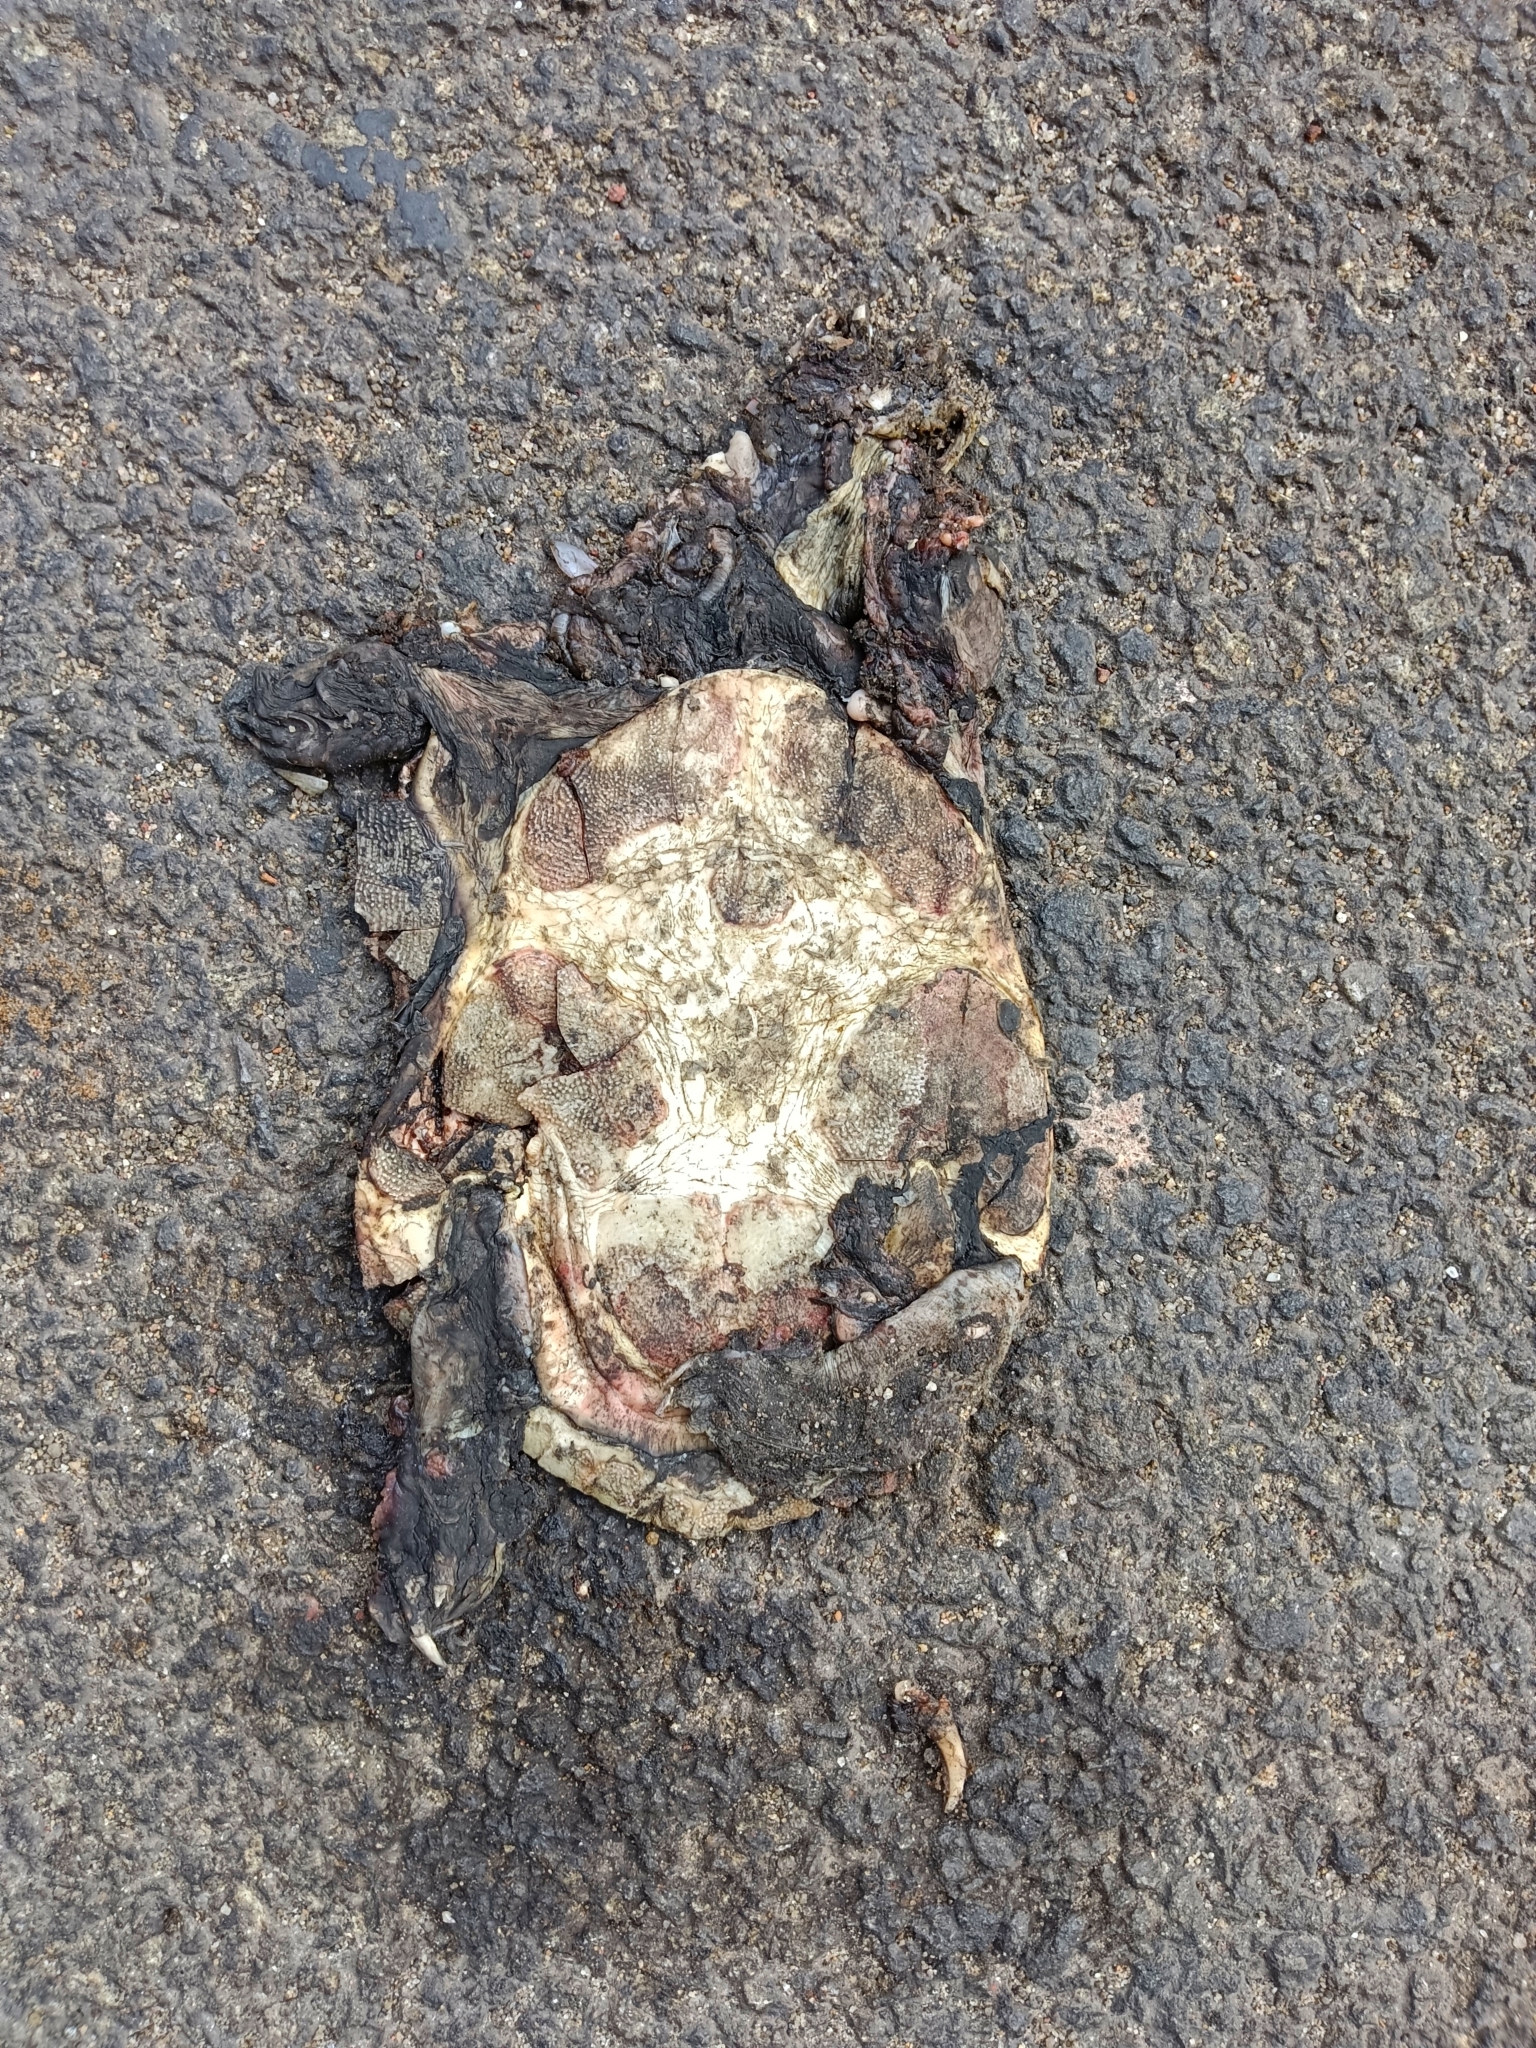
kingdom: Animalia
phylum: Chordata
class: Testudines
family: Trionychidae
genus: Lissemys
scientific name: Lissemys punctata
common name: Indian flap-shelled turtle
